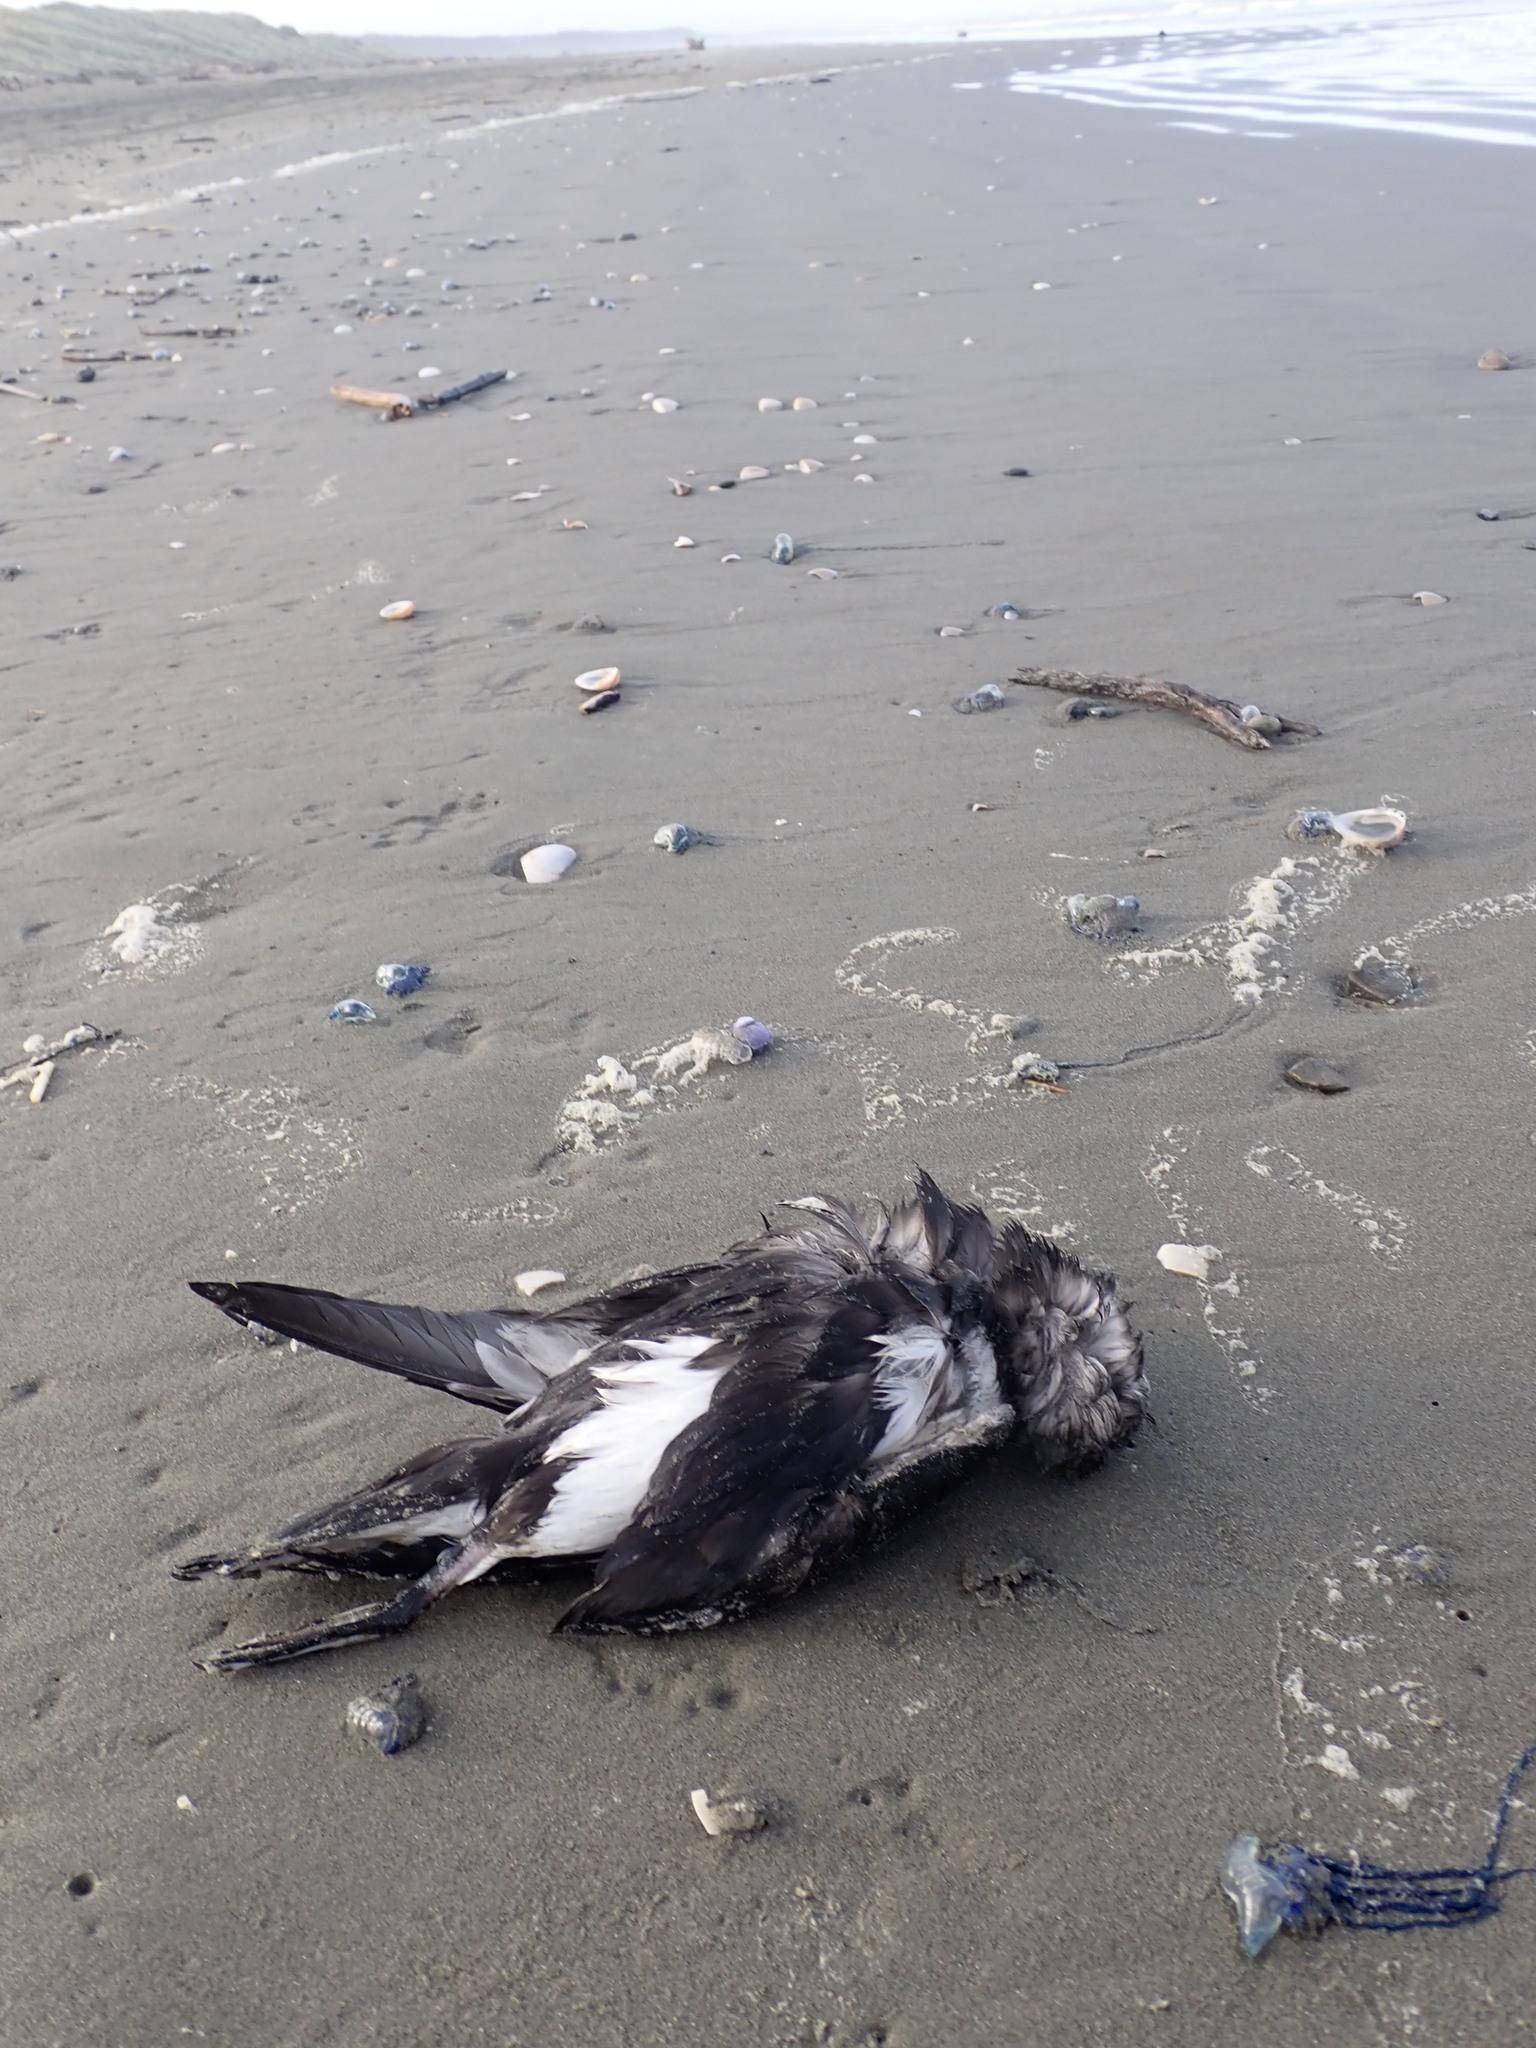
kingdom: Animalia
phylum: Chordata
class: Aves
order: Procellariiformes
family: Procellariidae
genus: Puffinus
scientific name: Puffinus assimilis
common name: Little shearwater
